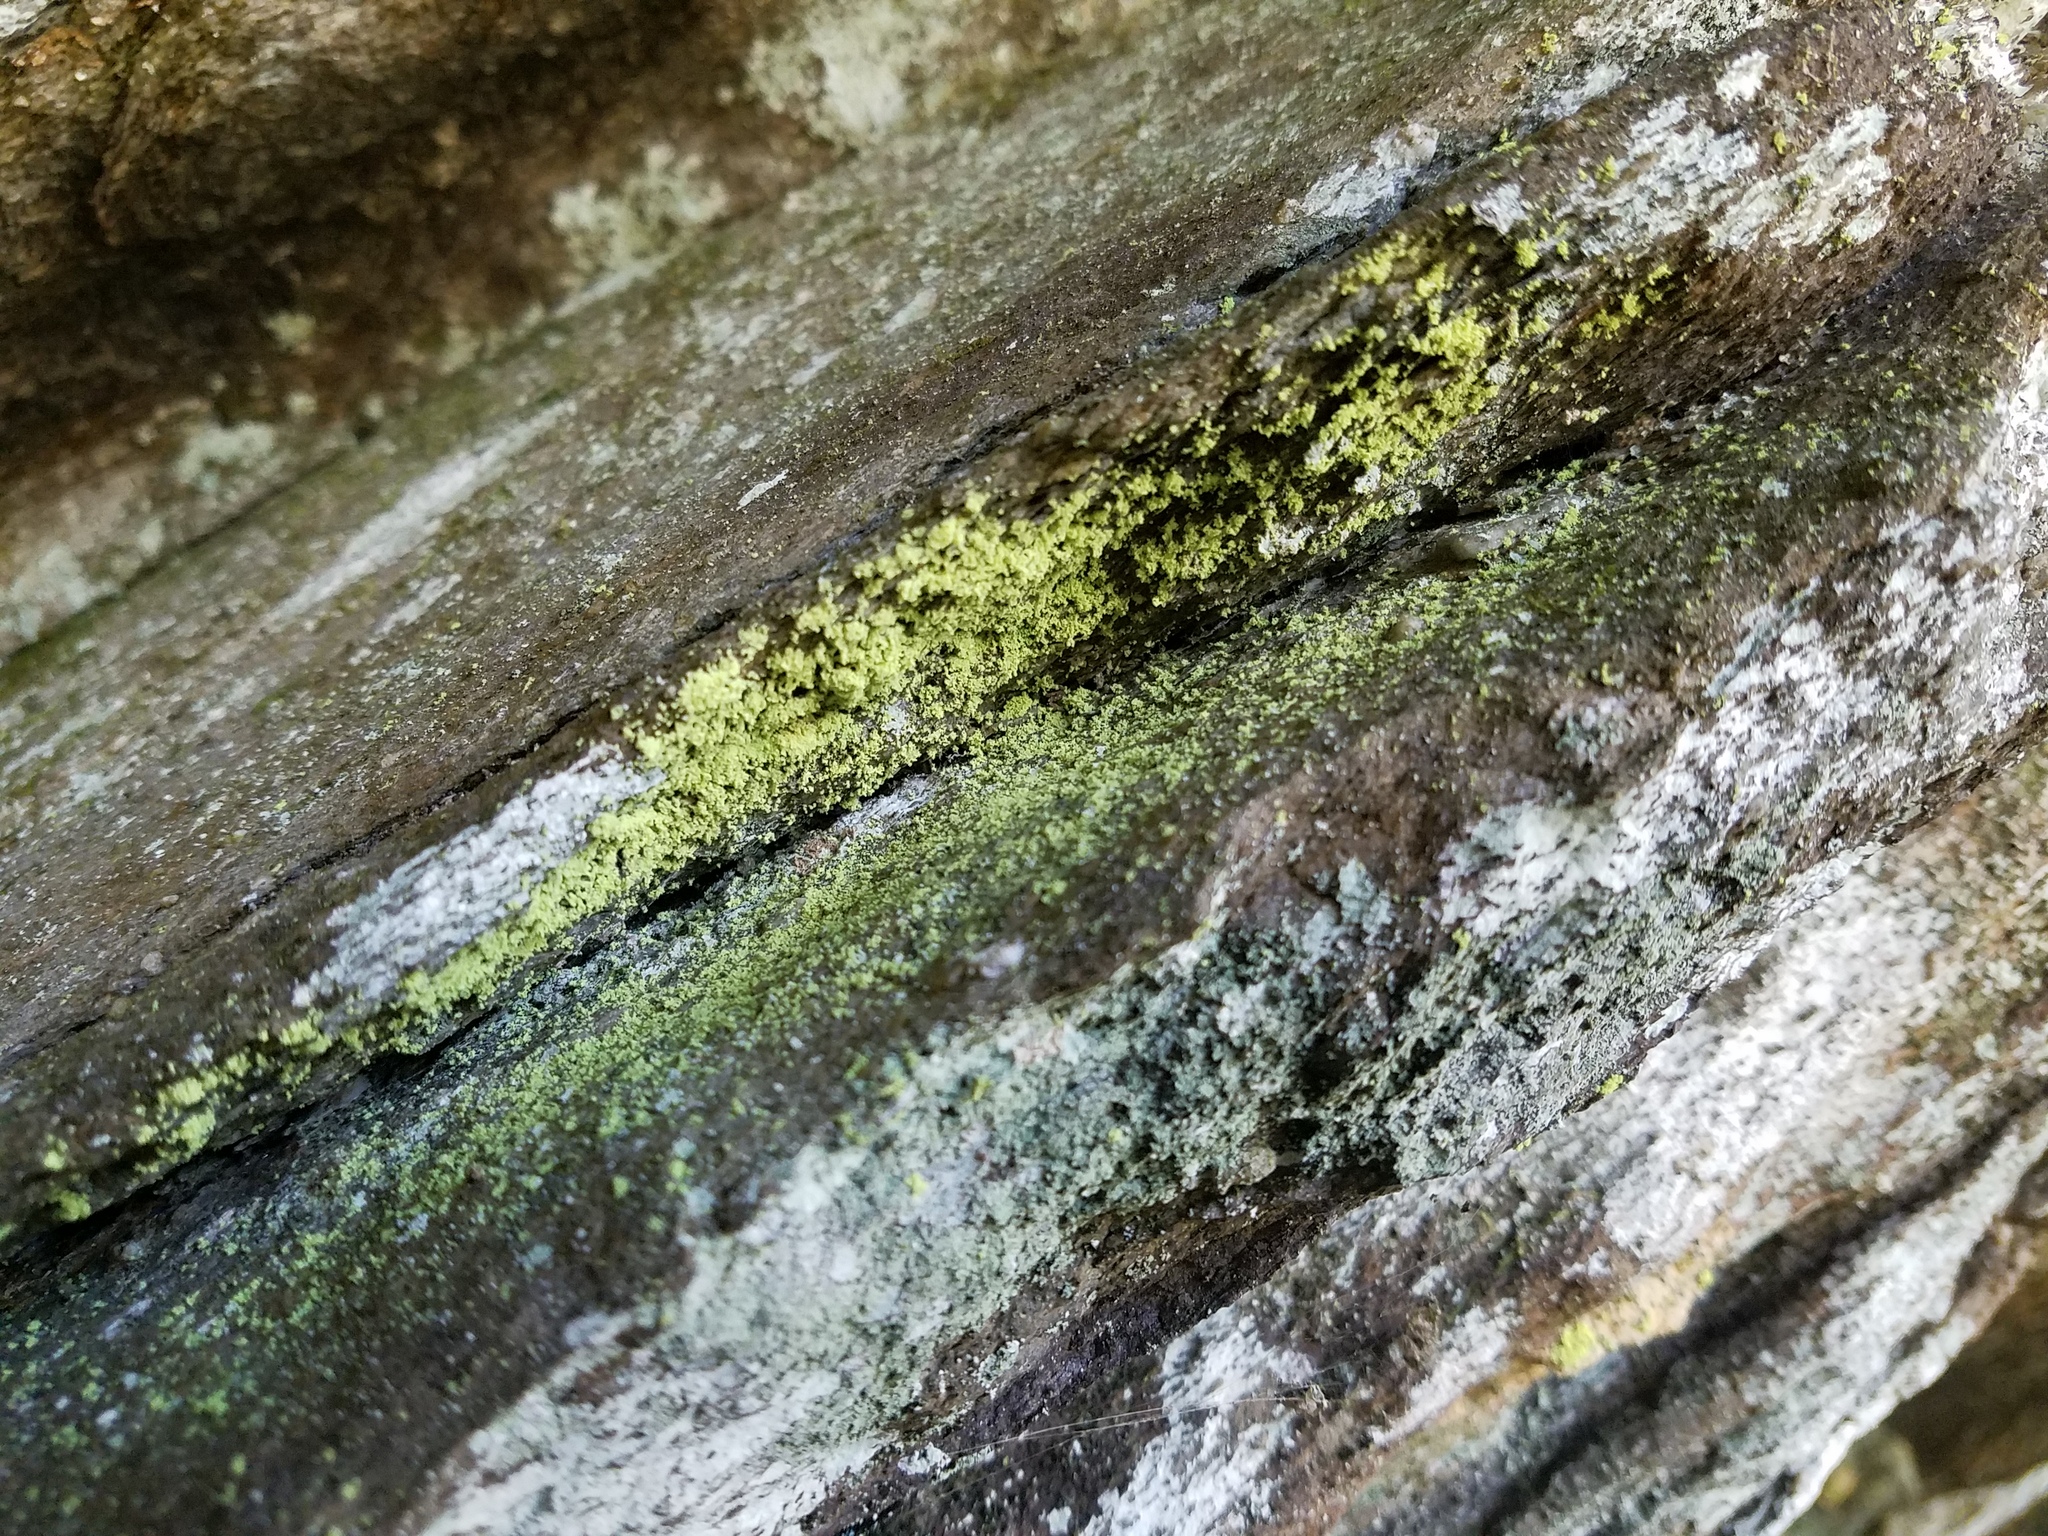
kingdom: Fungi
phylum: Ascomycota
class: Lecanoromycetes
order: Lecanorales
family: Psilolechiaceae
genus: Psilolechia
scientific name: Psilolechia lucida
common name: Sulphur dust lichen
